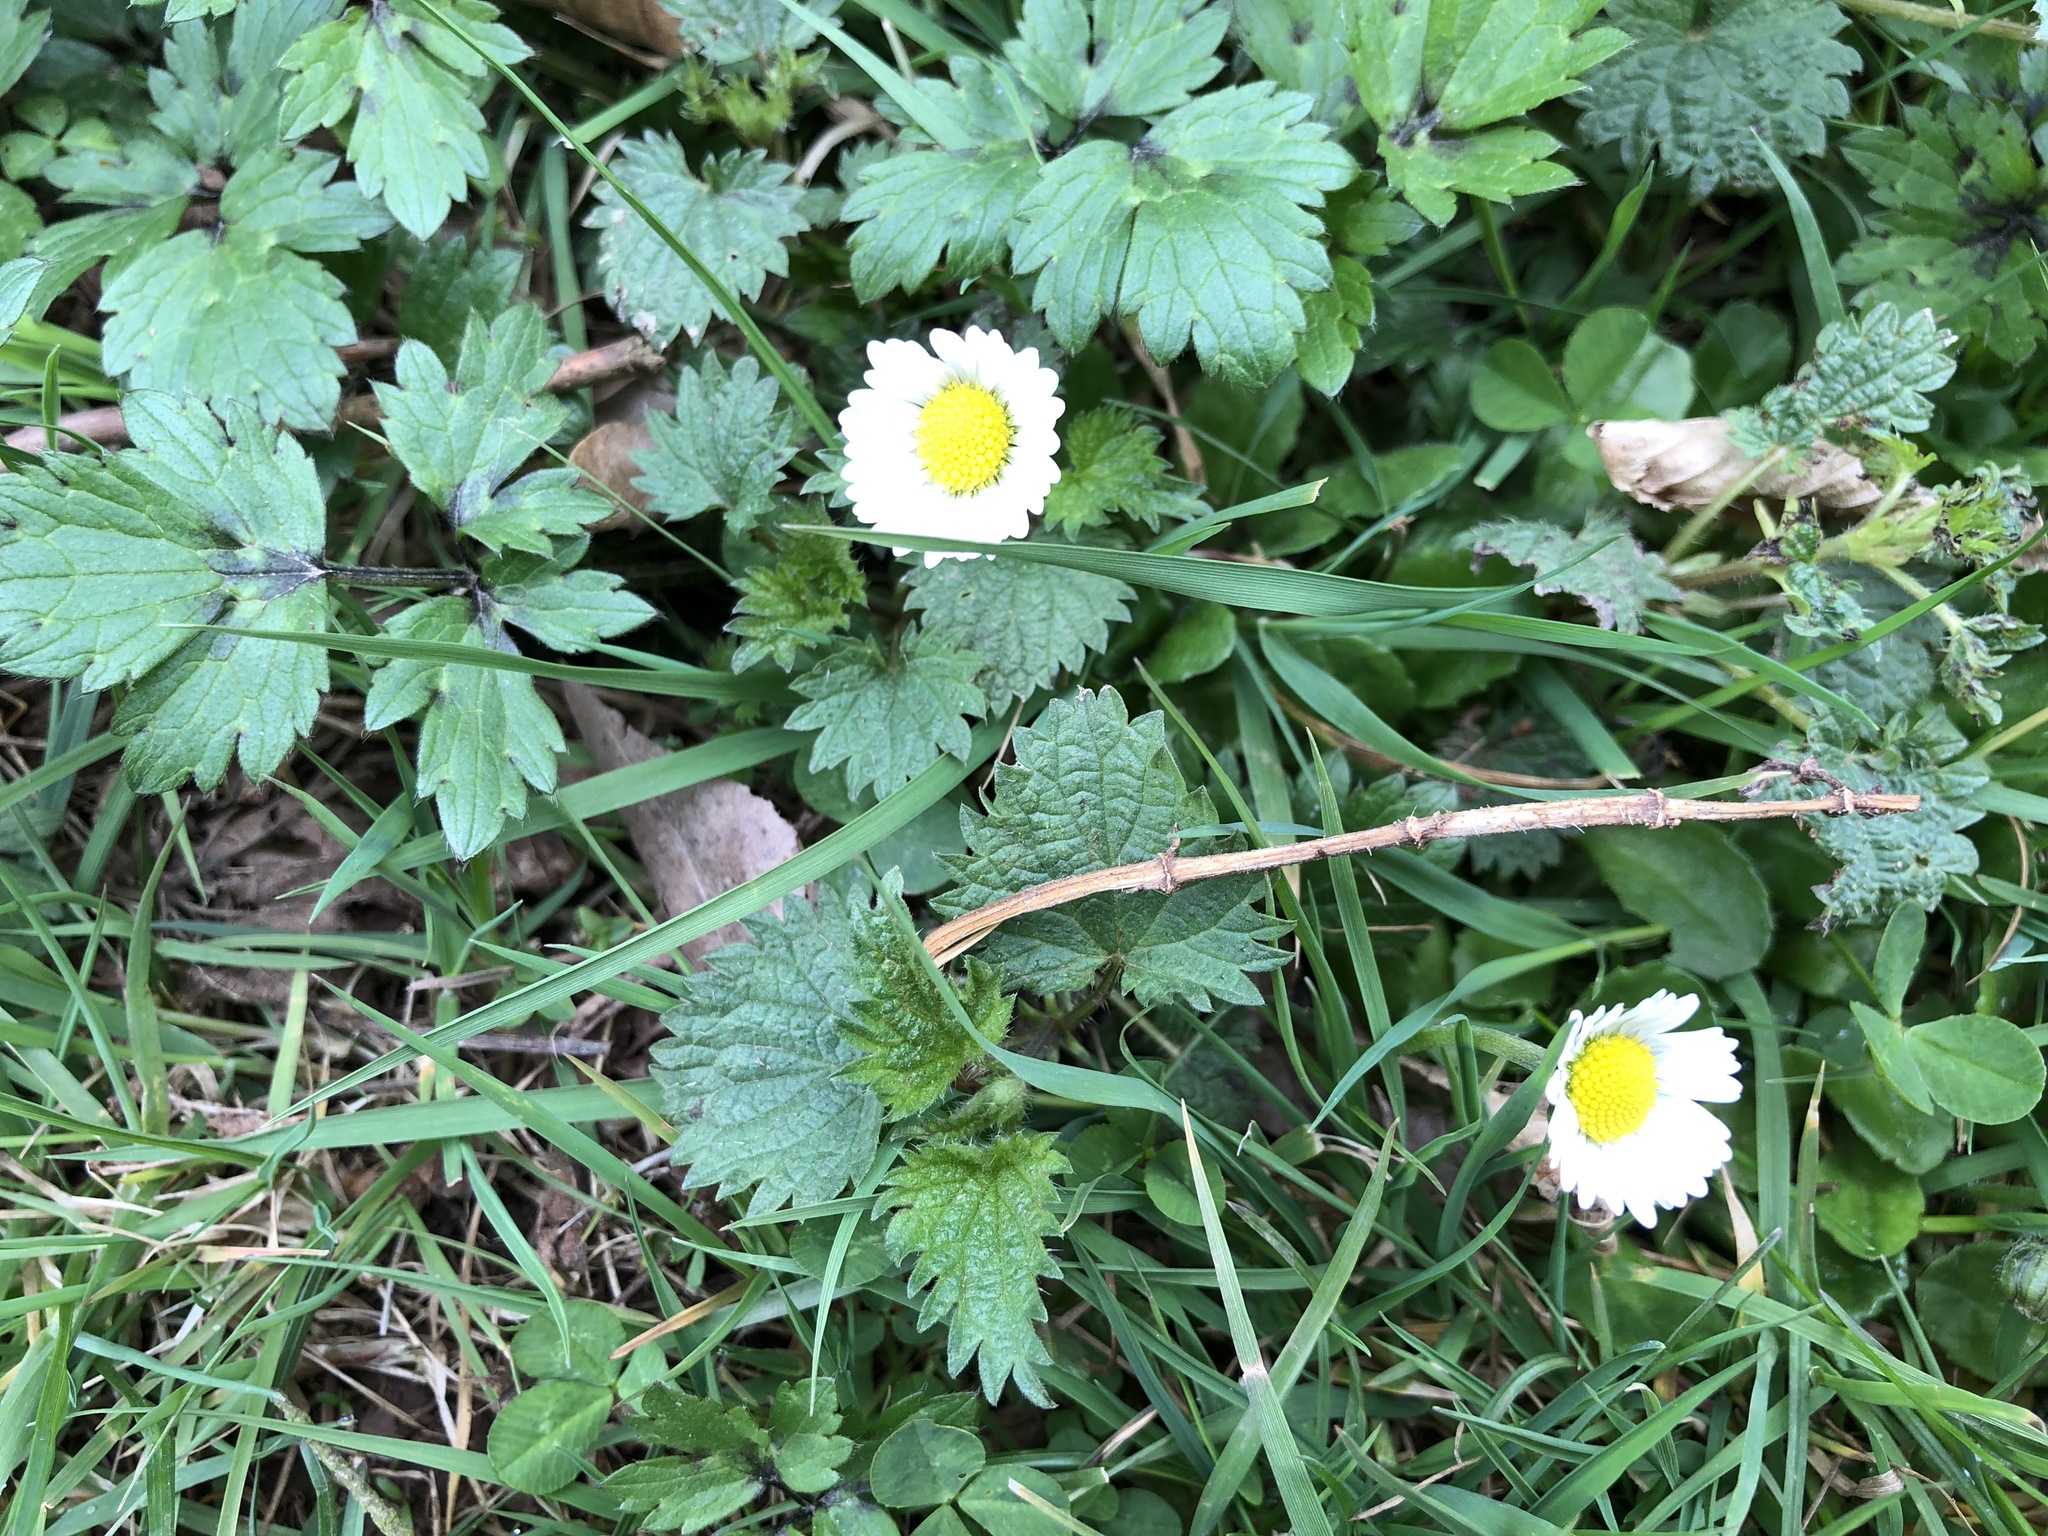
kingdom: Plantae
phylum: Tracheophyta
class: Magnoliopsida
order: Asterales
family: Asteraceae
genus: Bellis
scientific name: Bellis perennis
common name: Lawndaisy
